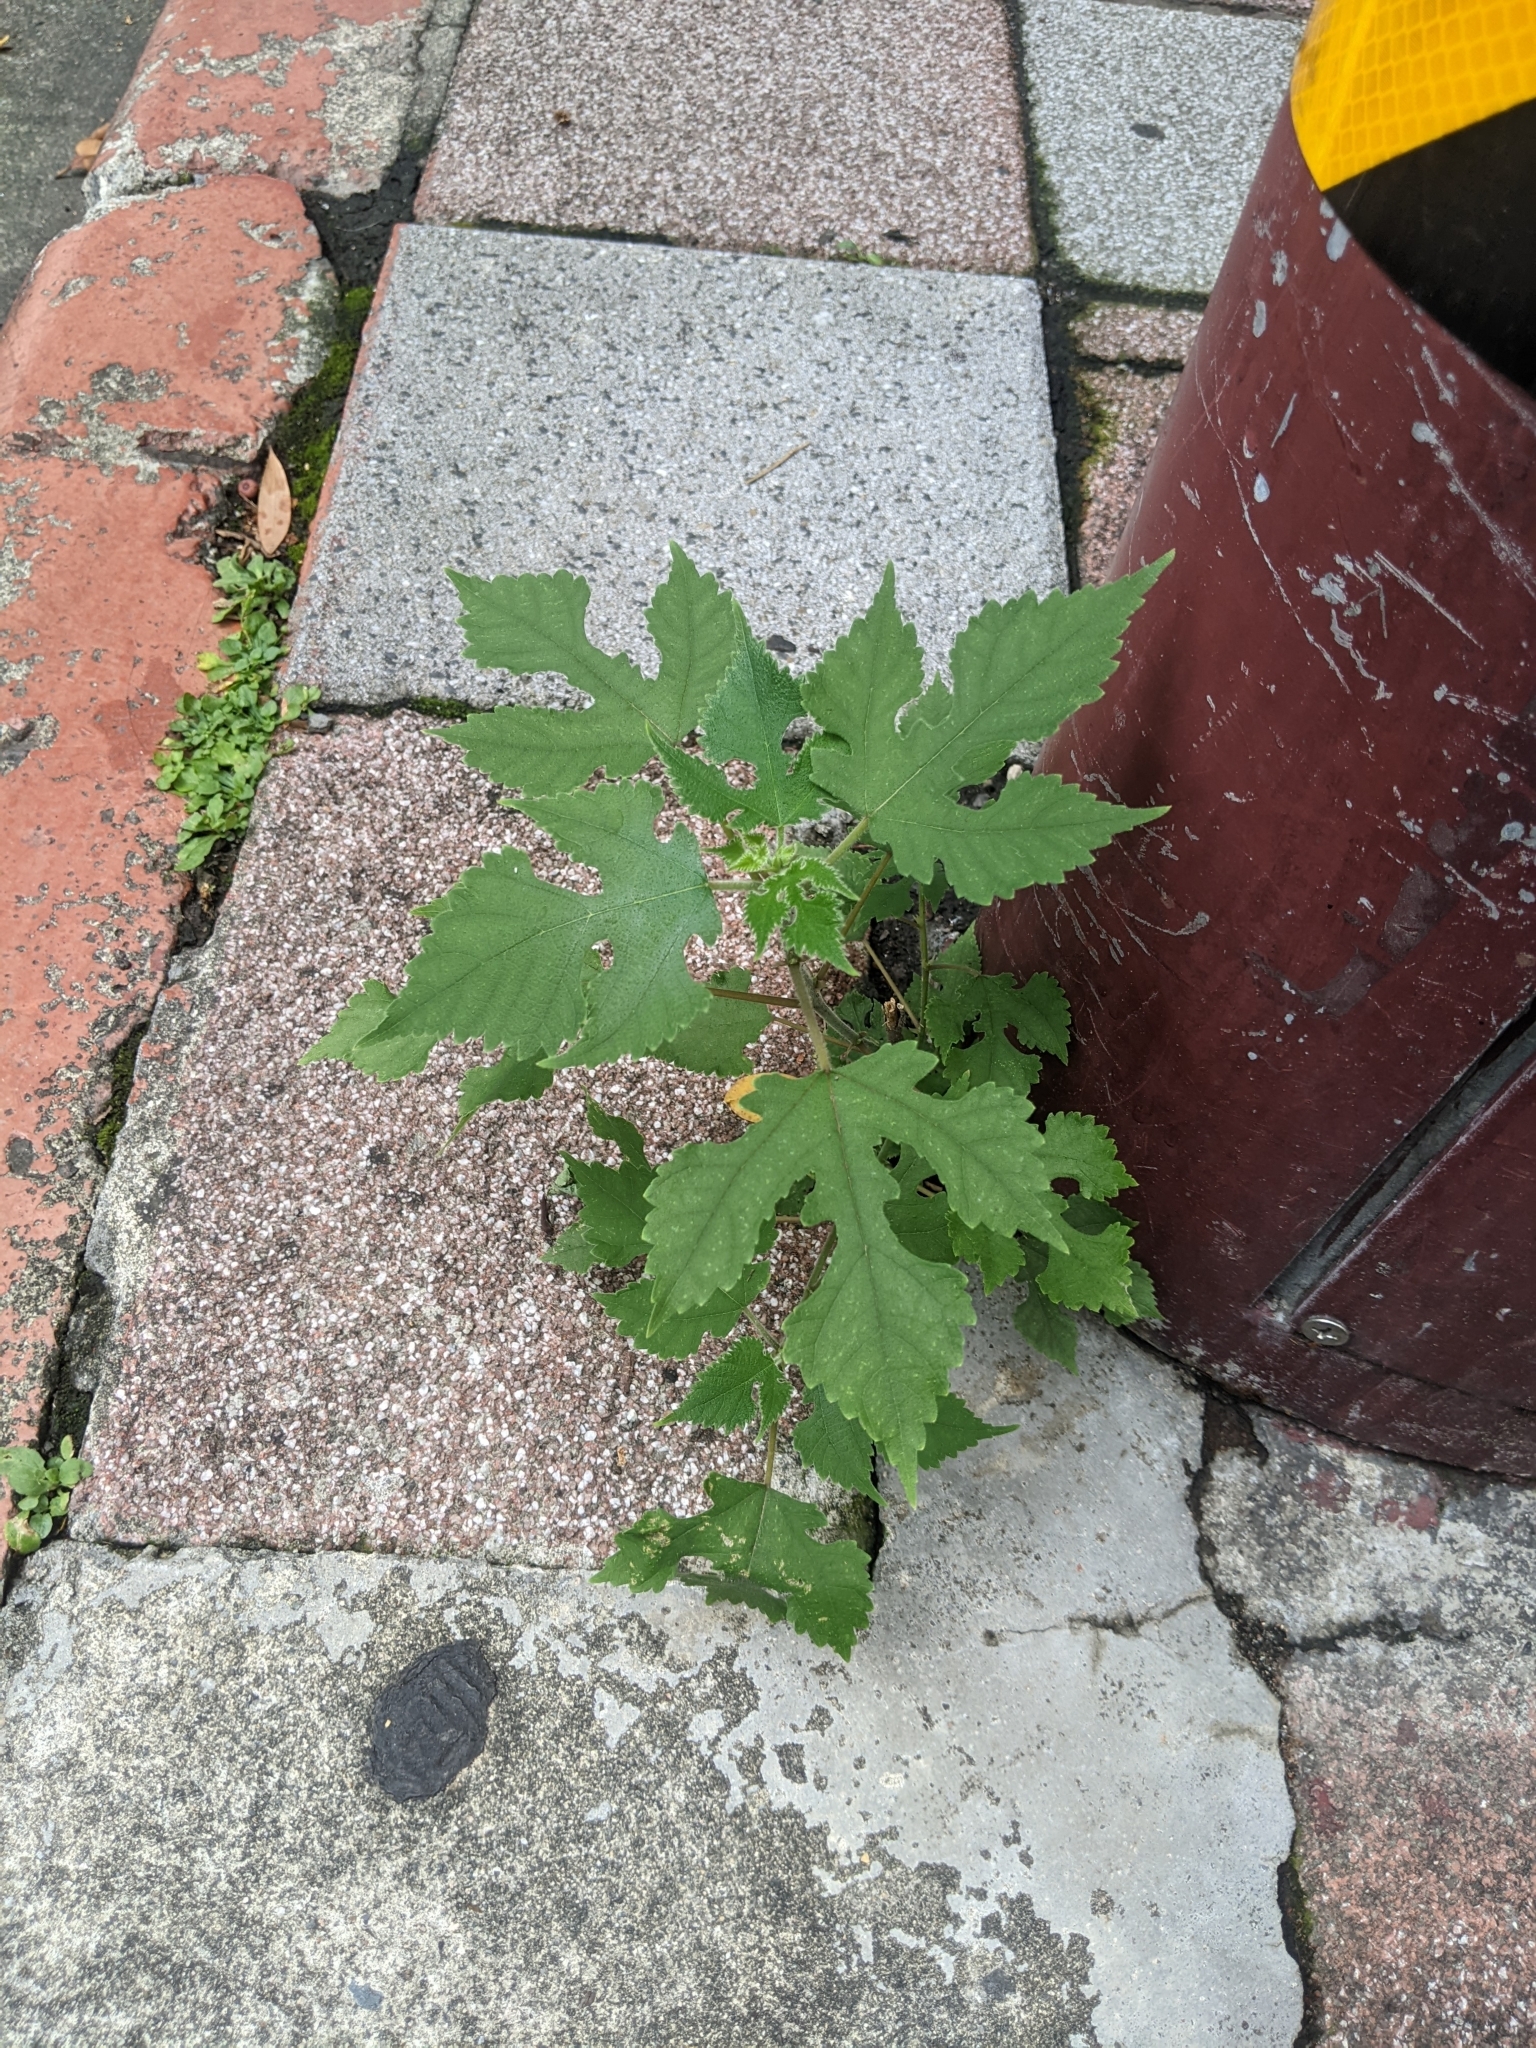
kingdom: Plantae
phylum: Tracheophyta
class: Magnoliopsida
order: Rosales
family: Moraceae
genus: Broussonetia
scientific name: Broussonetia papyrifera
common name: Paper mulberry
